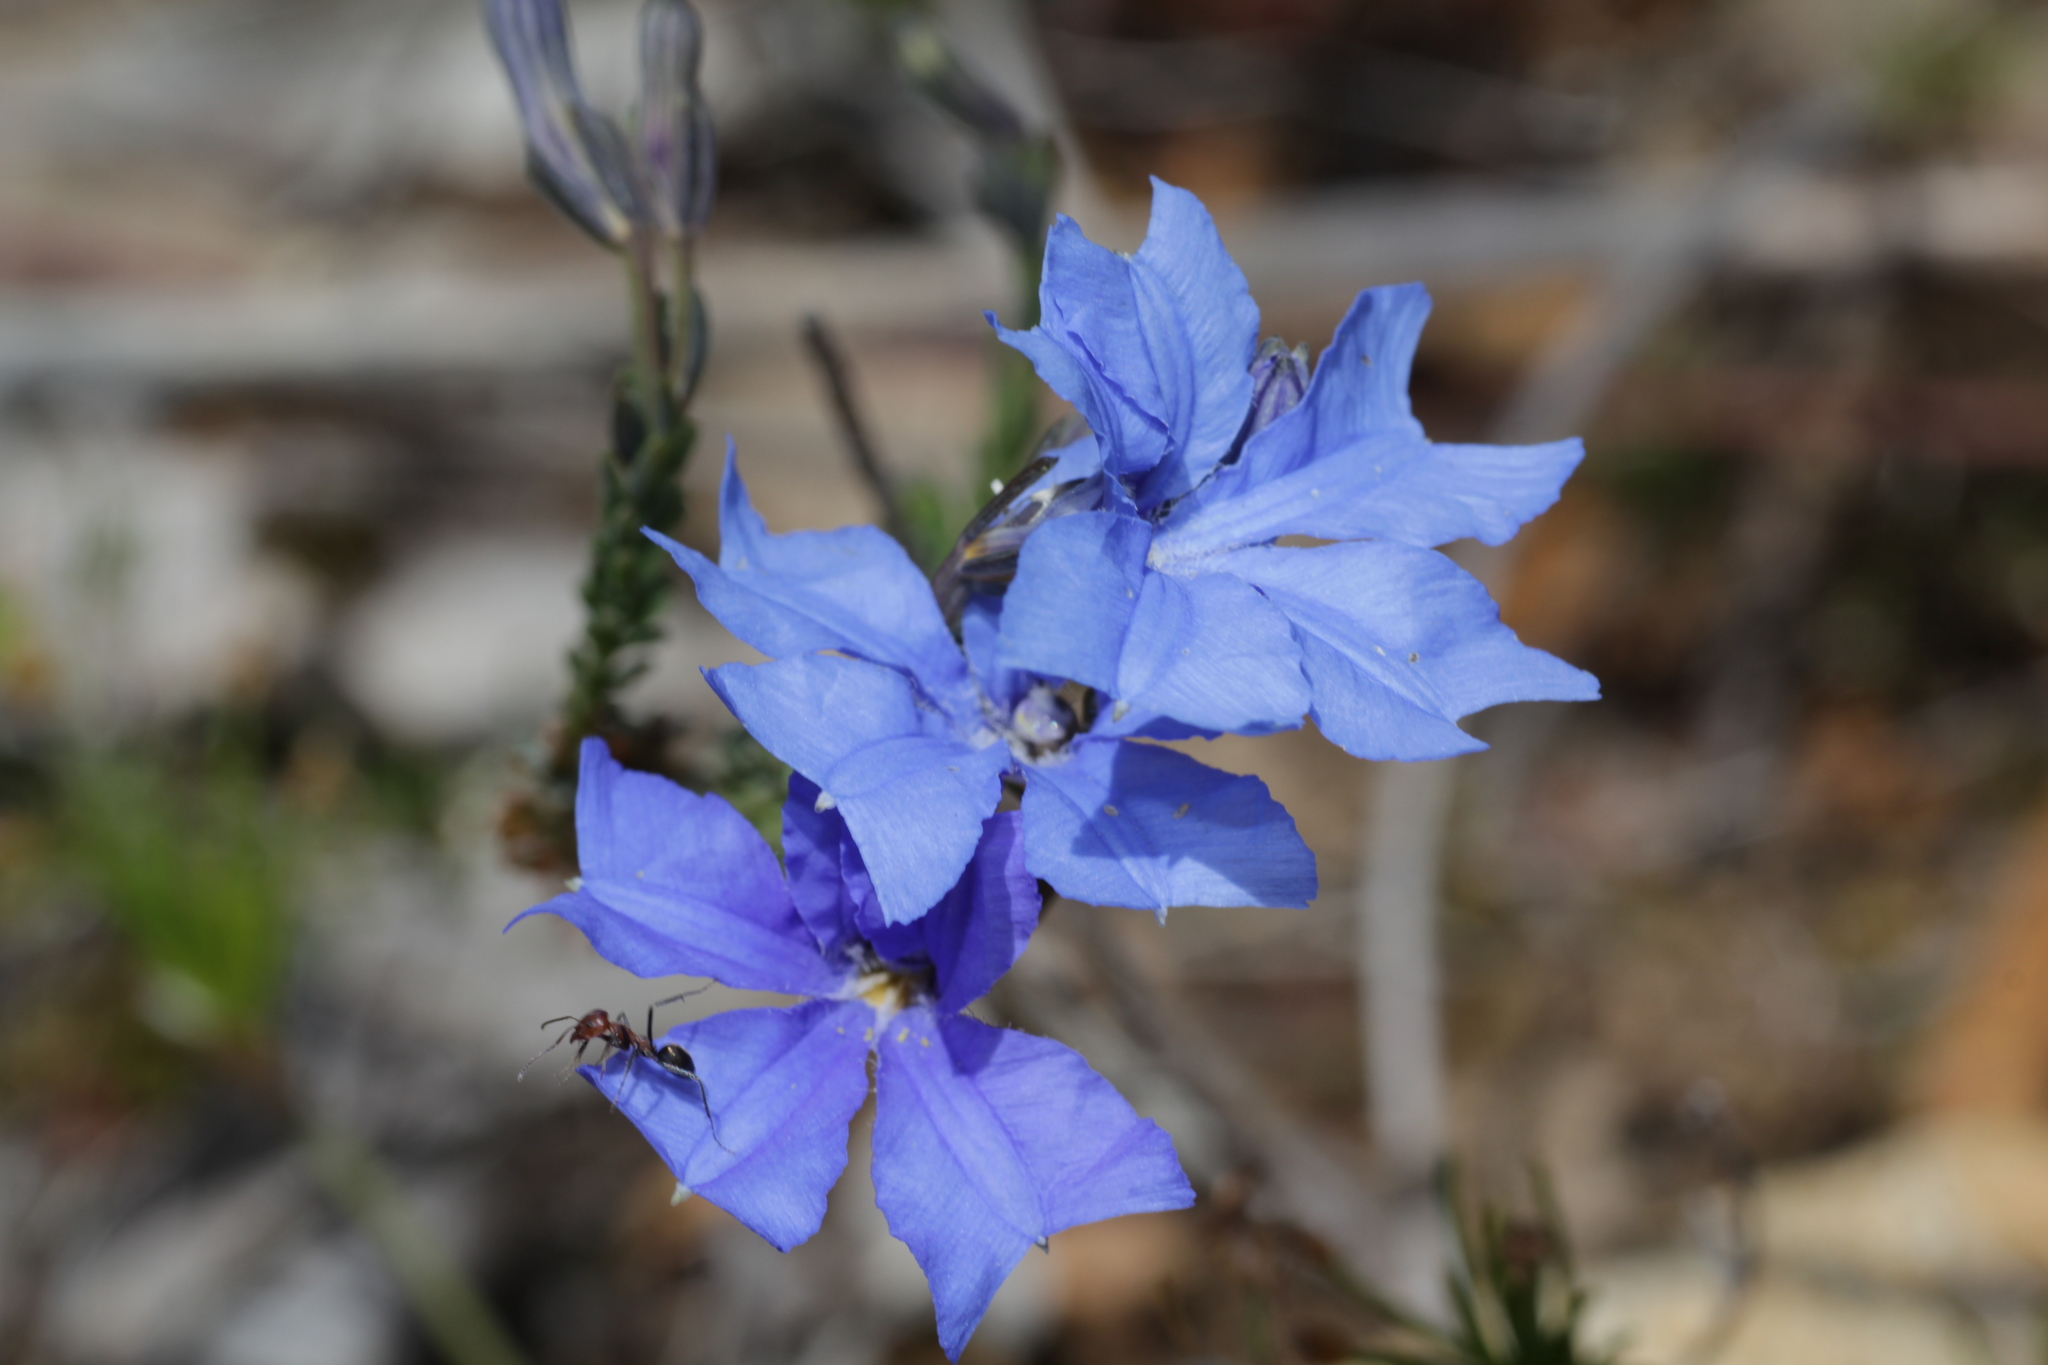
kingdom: Plantae
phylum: Tracheophyta
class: Magnoliopsida
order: Asterales
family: Goodeniaceae
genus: Lechenaultia
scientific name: Lechenaultia biloba
